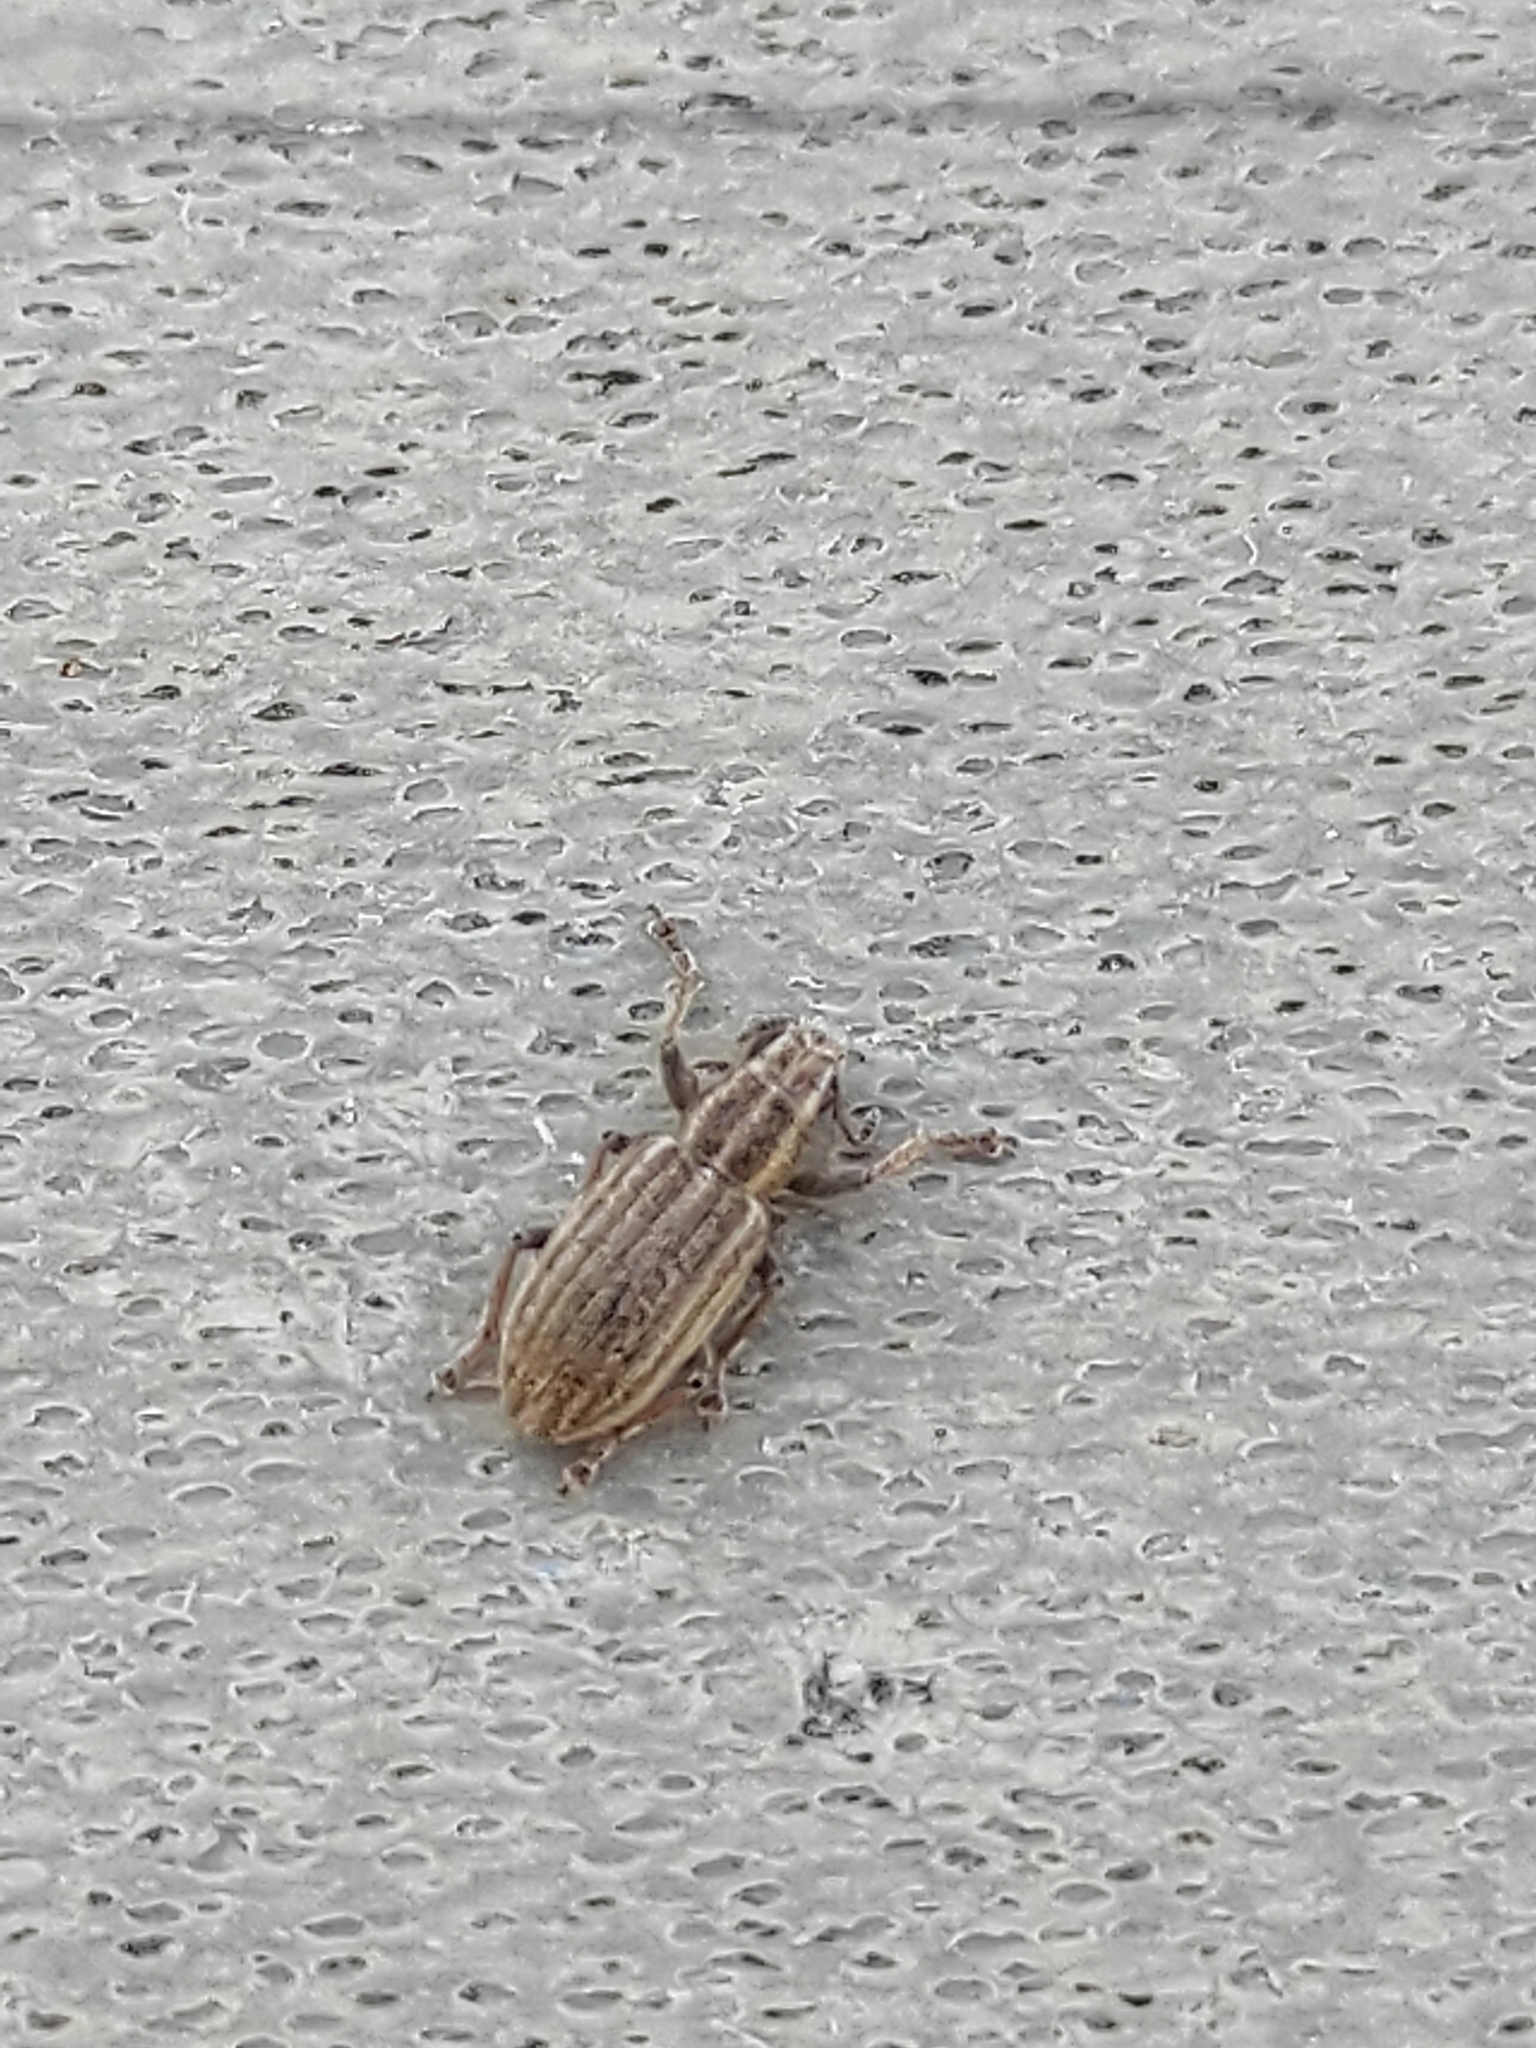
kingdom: Animalia
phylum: Arthropoda
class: Insecta
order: Coleoptera
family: Curculionidae
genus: Sitona
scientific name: Sitona lineatus
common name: Weevil
